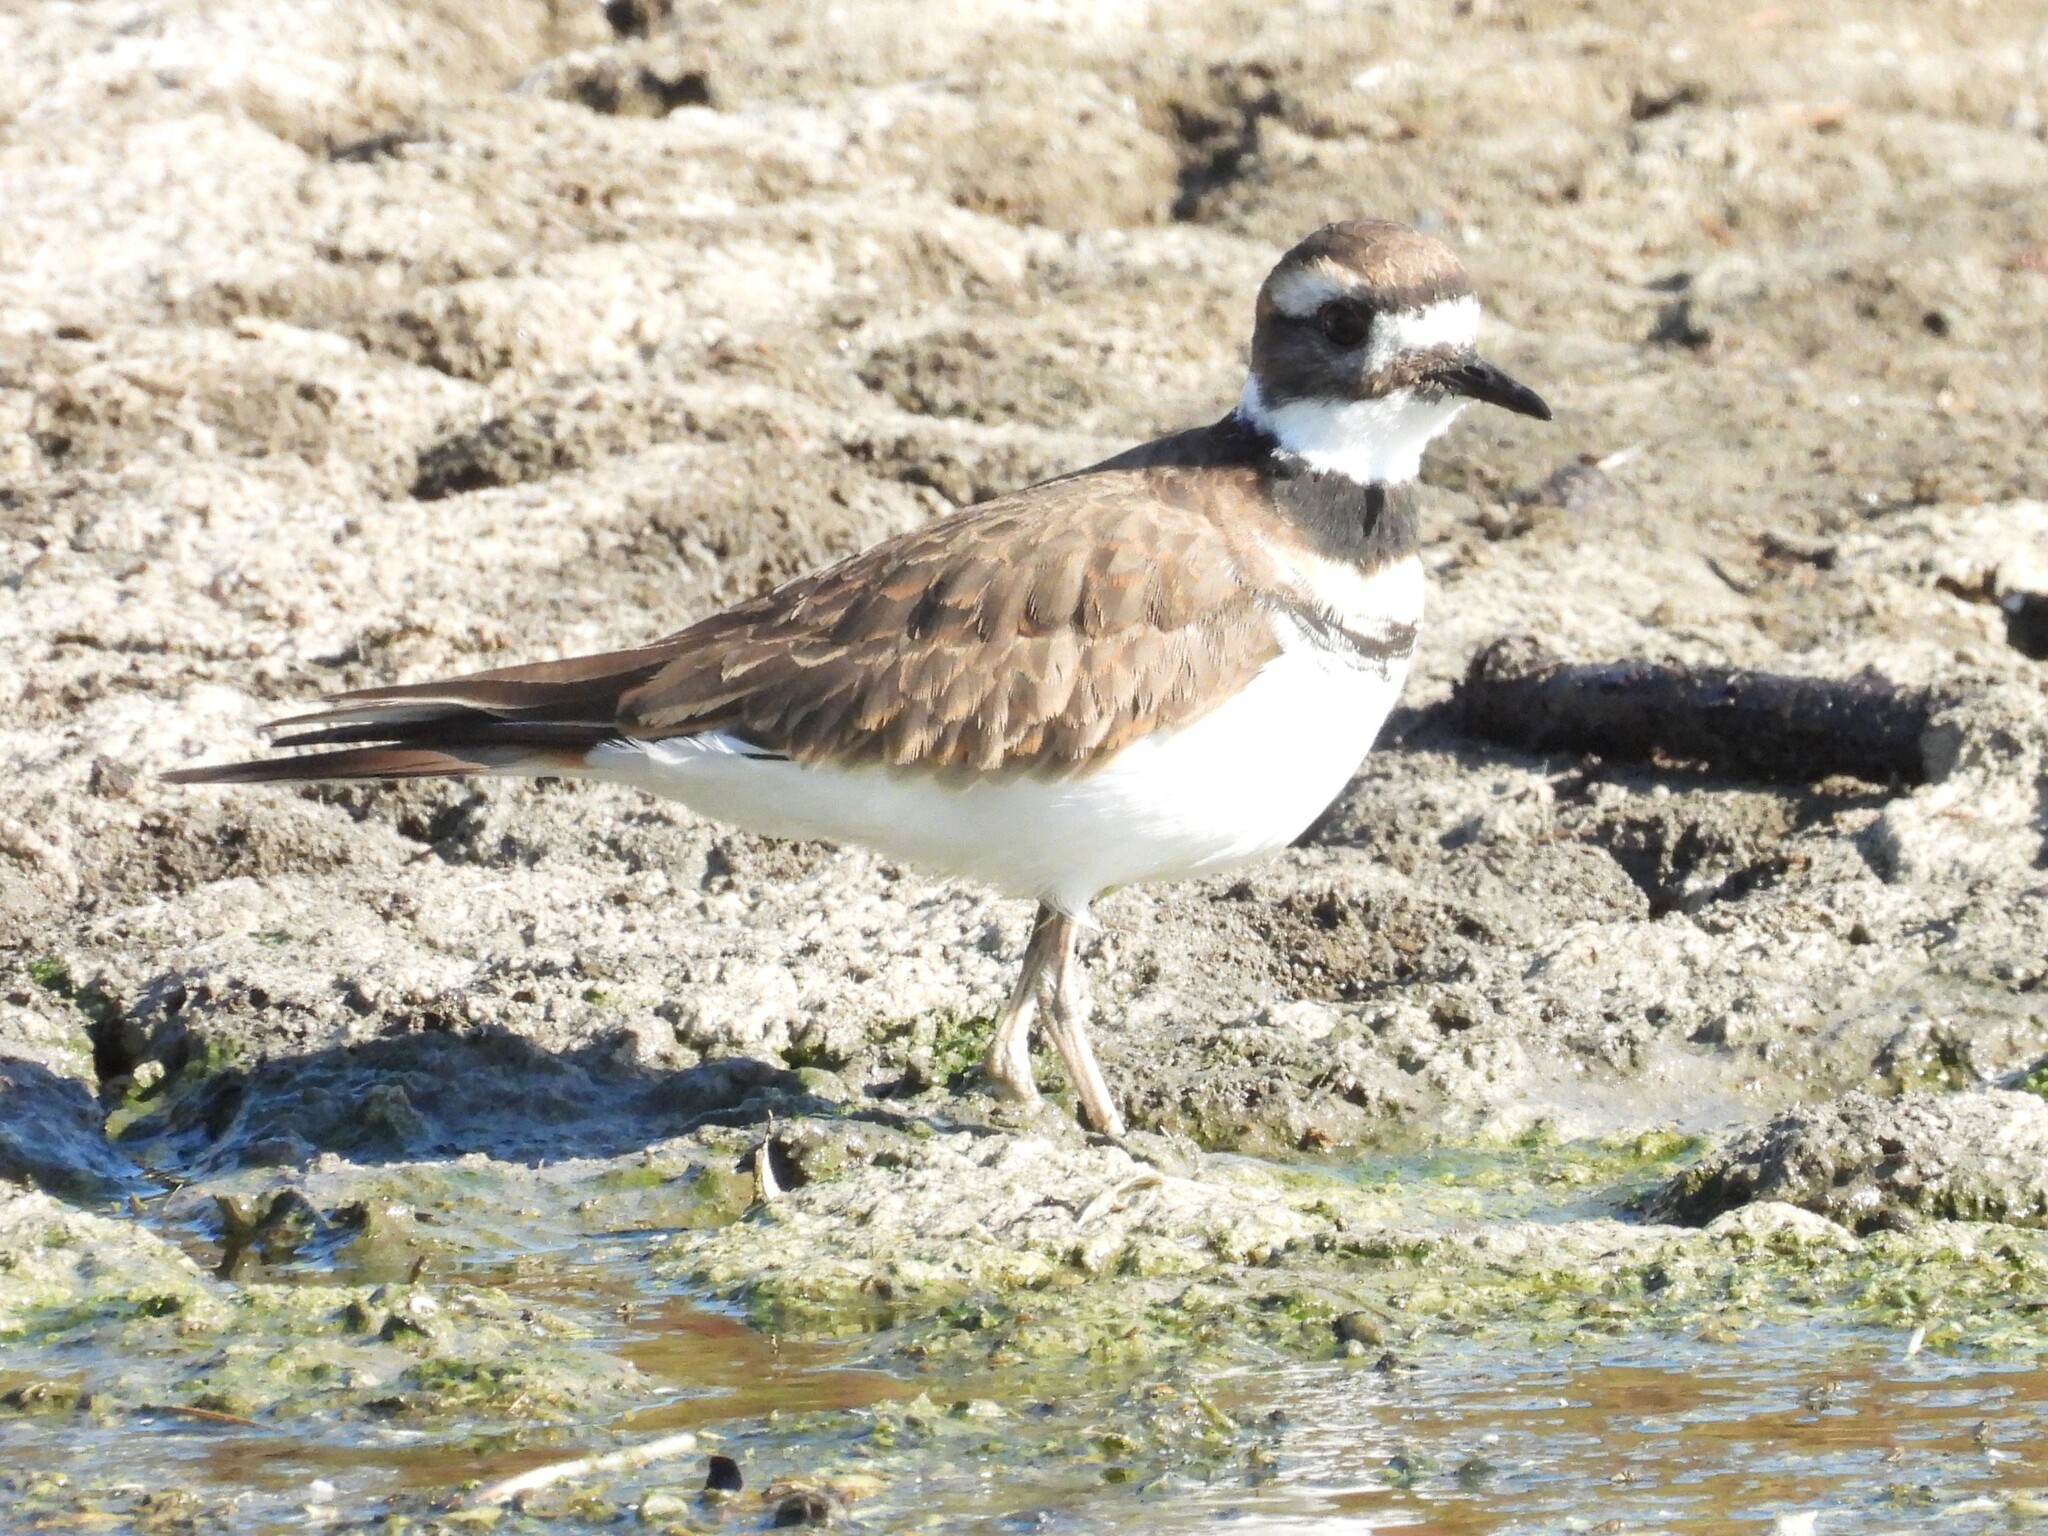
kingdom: Animalia
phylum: Chordata
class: Aves
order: Charadriiformes
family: Charadriidae
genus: Charadrius
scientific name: Charadrius vociferus
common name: Killdeer
